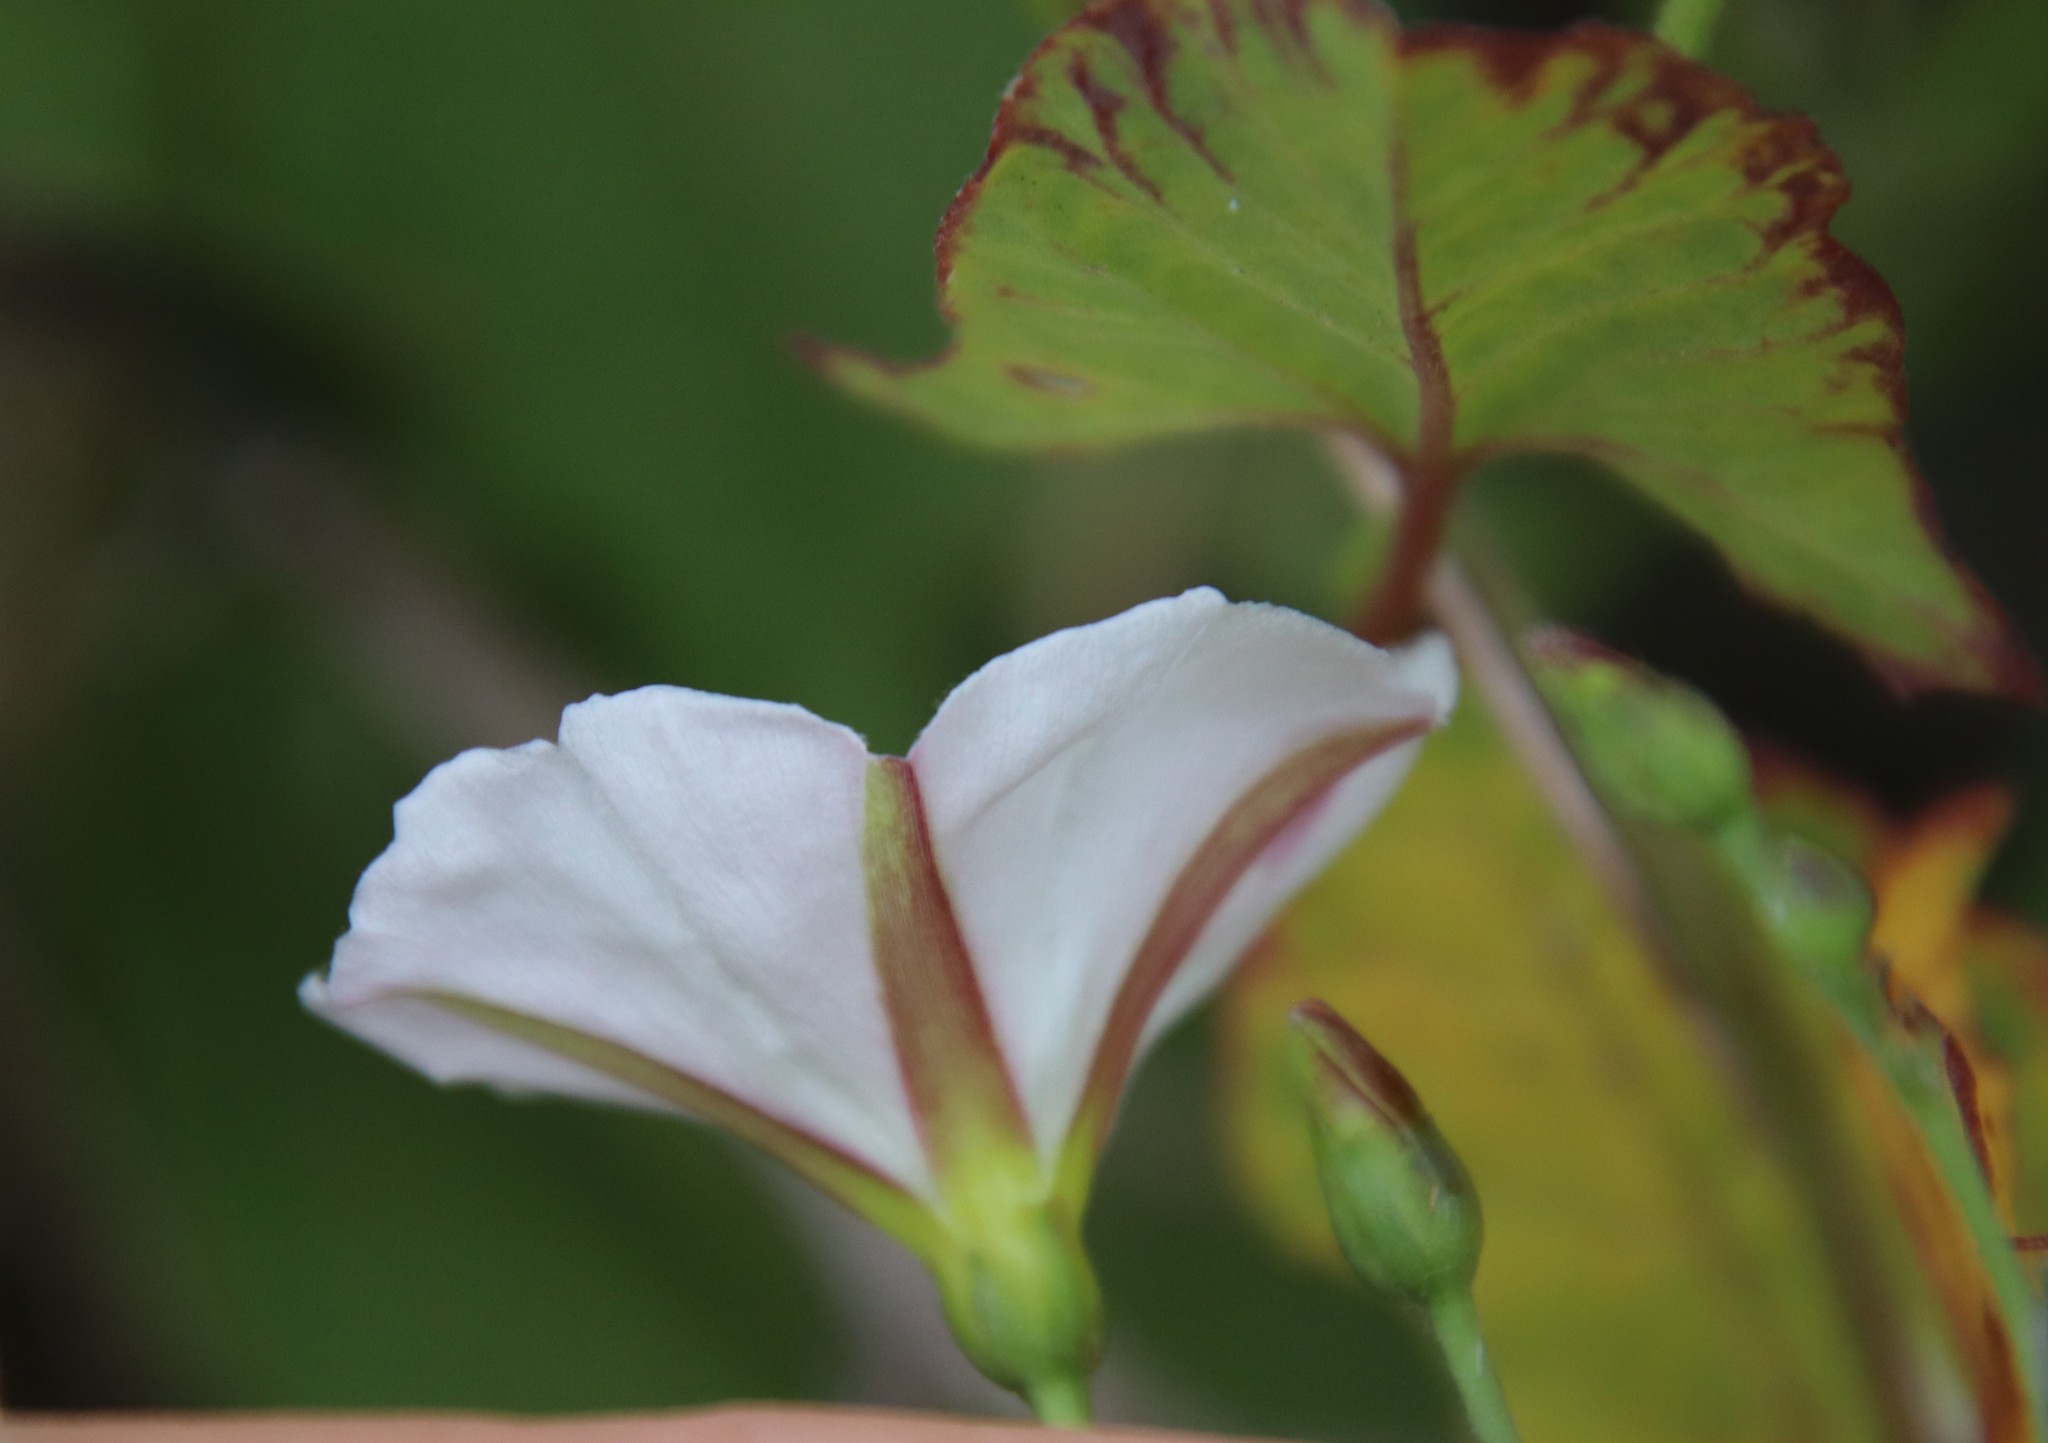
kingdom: Plantae
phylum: Tracheophyta
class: Magnoliopsida
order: Solanales
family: Convolvulaceae
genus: Convolvulus
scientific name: Convolvulus arvensis
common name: Field bindweed
